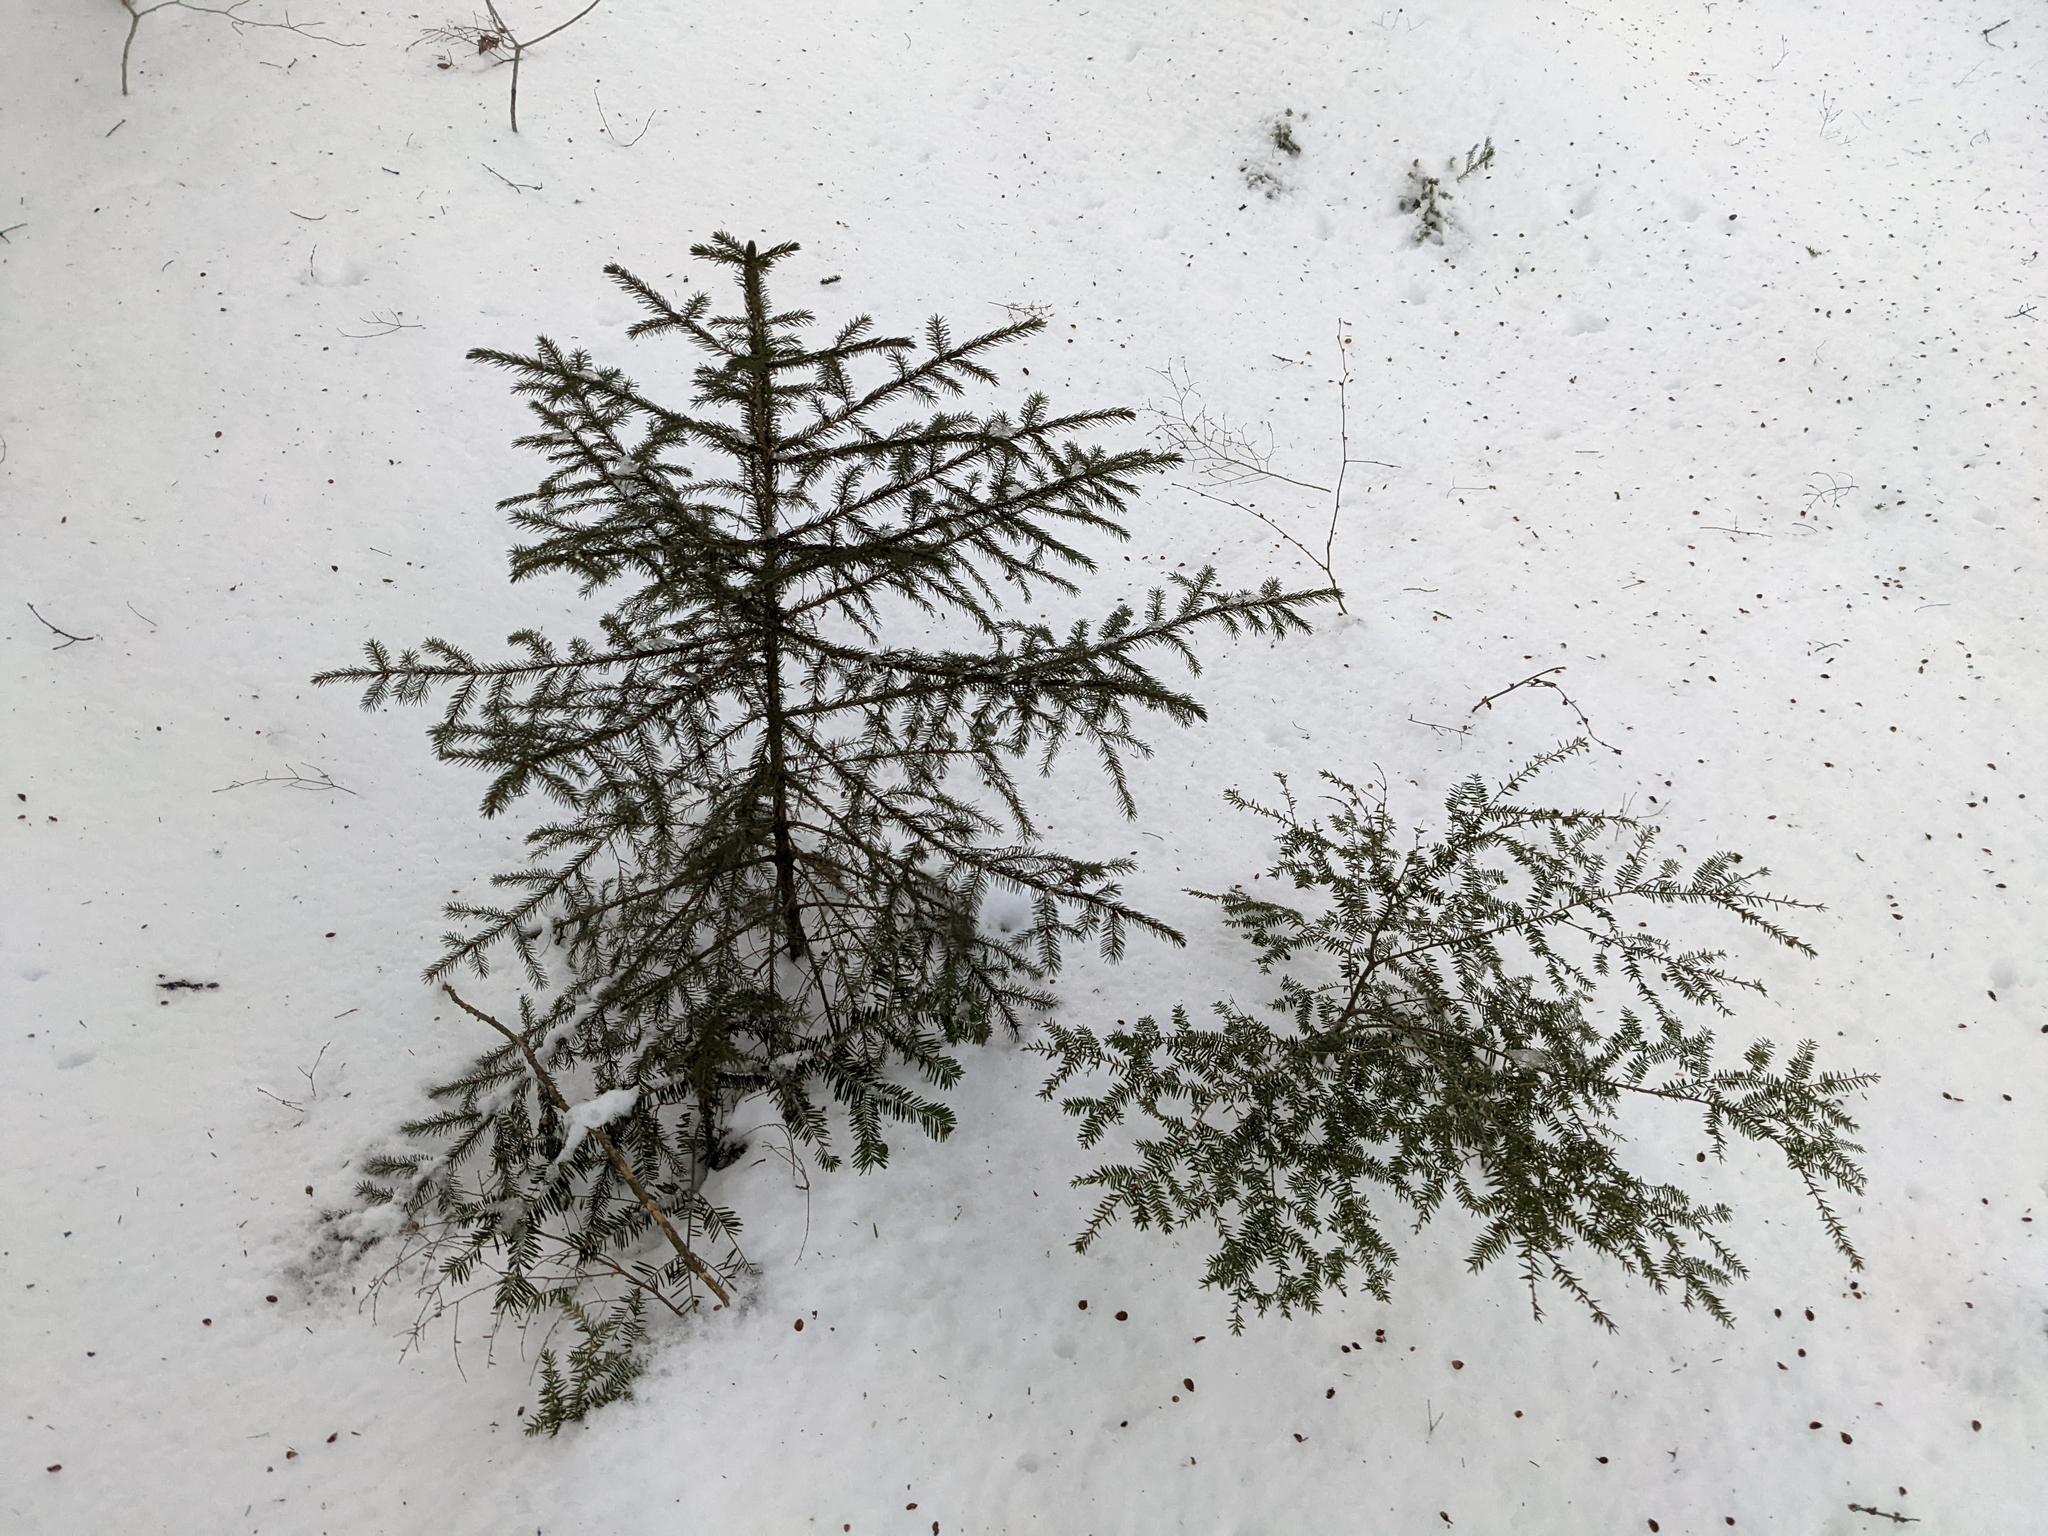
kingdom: Plantae
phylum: Tracheophyta
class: Pinopsida
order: Pinales
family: Pinaceae
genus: Tsuga
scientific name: Tsuga canadensis
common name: Eastern hemlock
